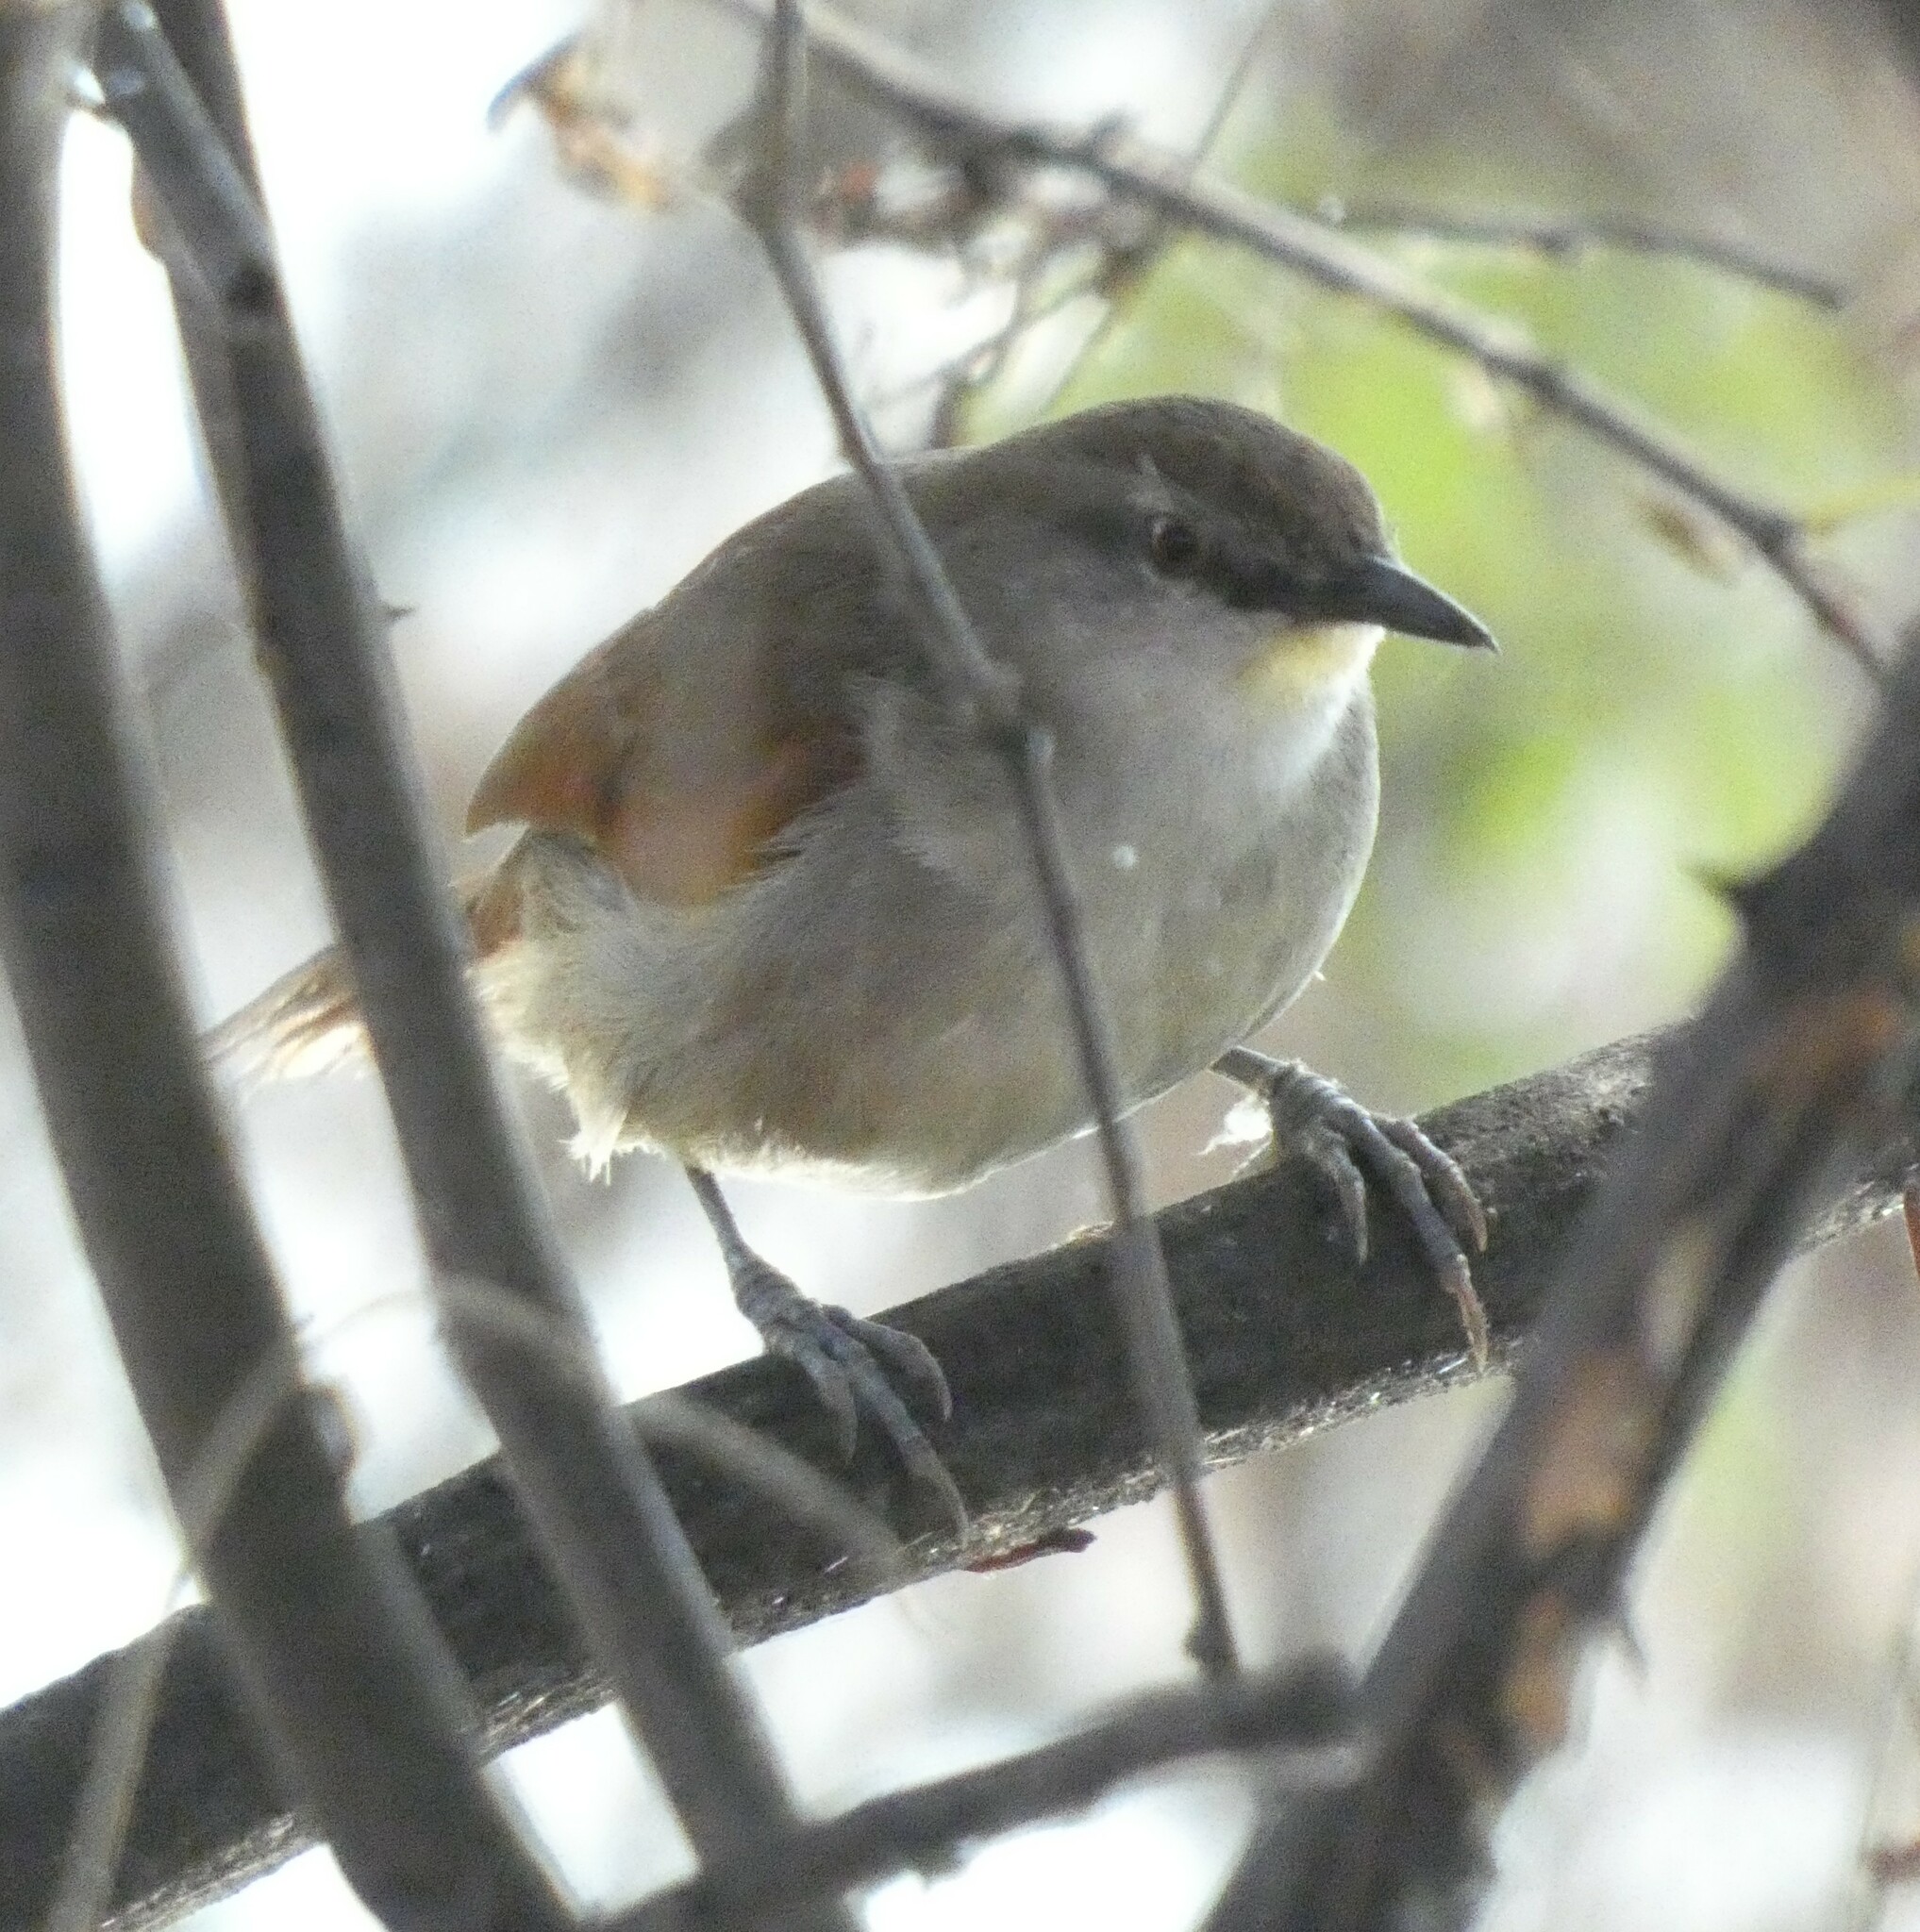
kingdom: Animalia
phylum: Chordata
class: Aves
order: Passeriformes
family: Furnariidae
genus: Certhiaxis
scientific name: Certhiaxis cinnamomeus
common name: Yellow-chinned spinetail
